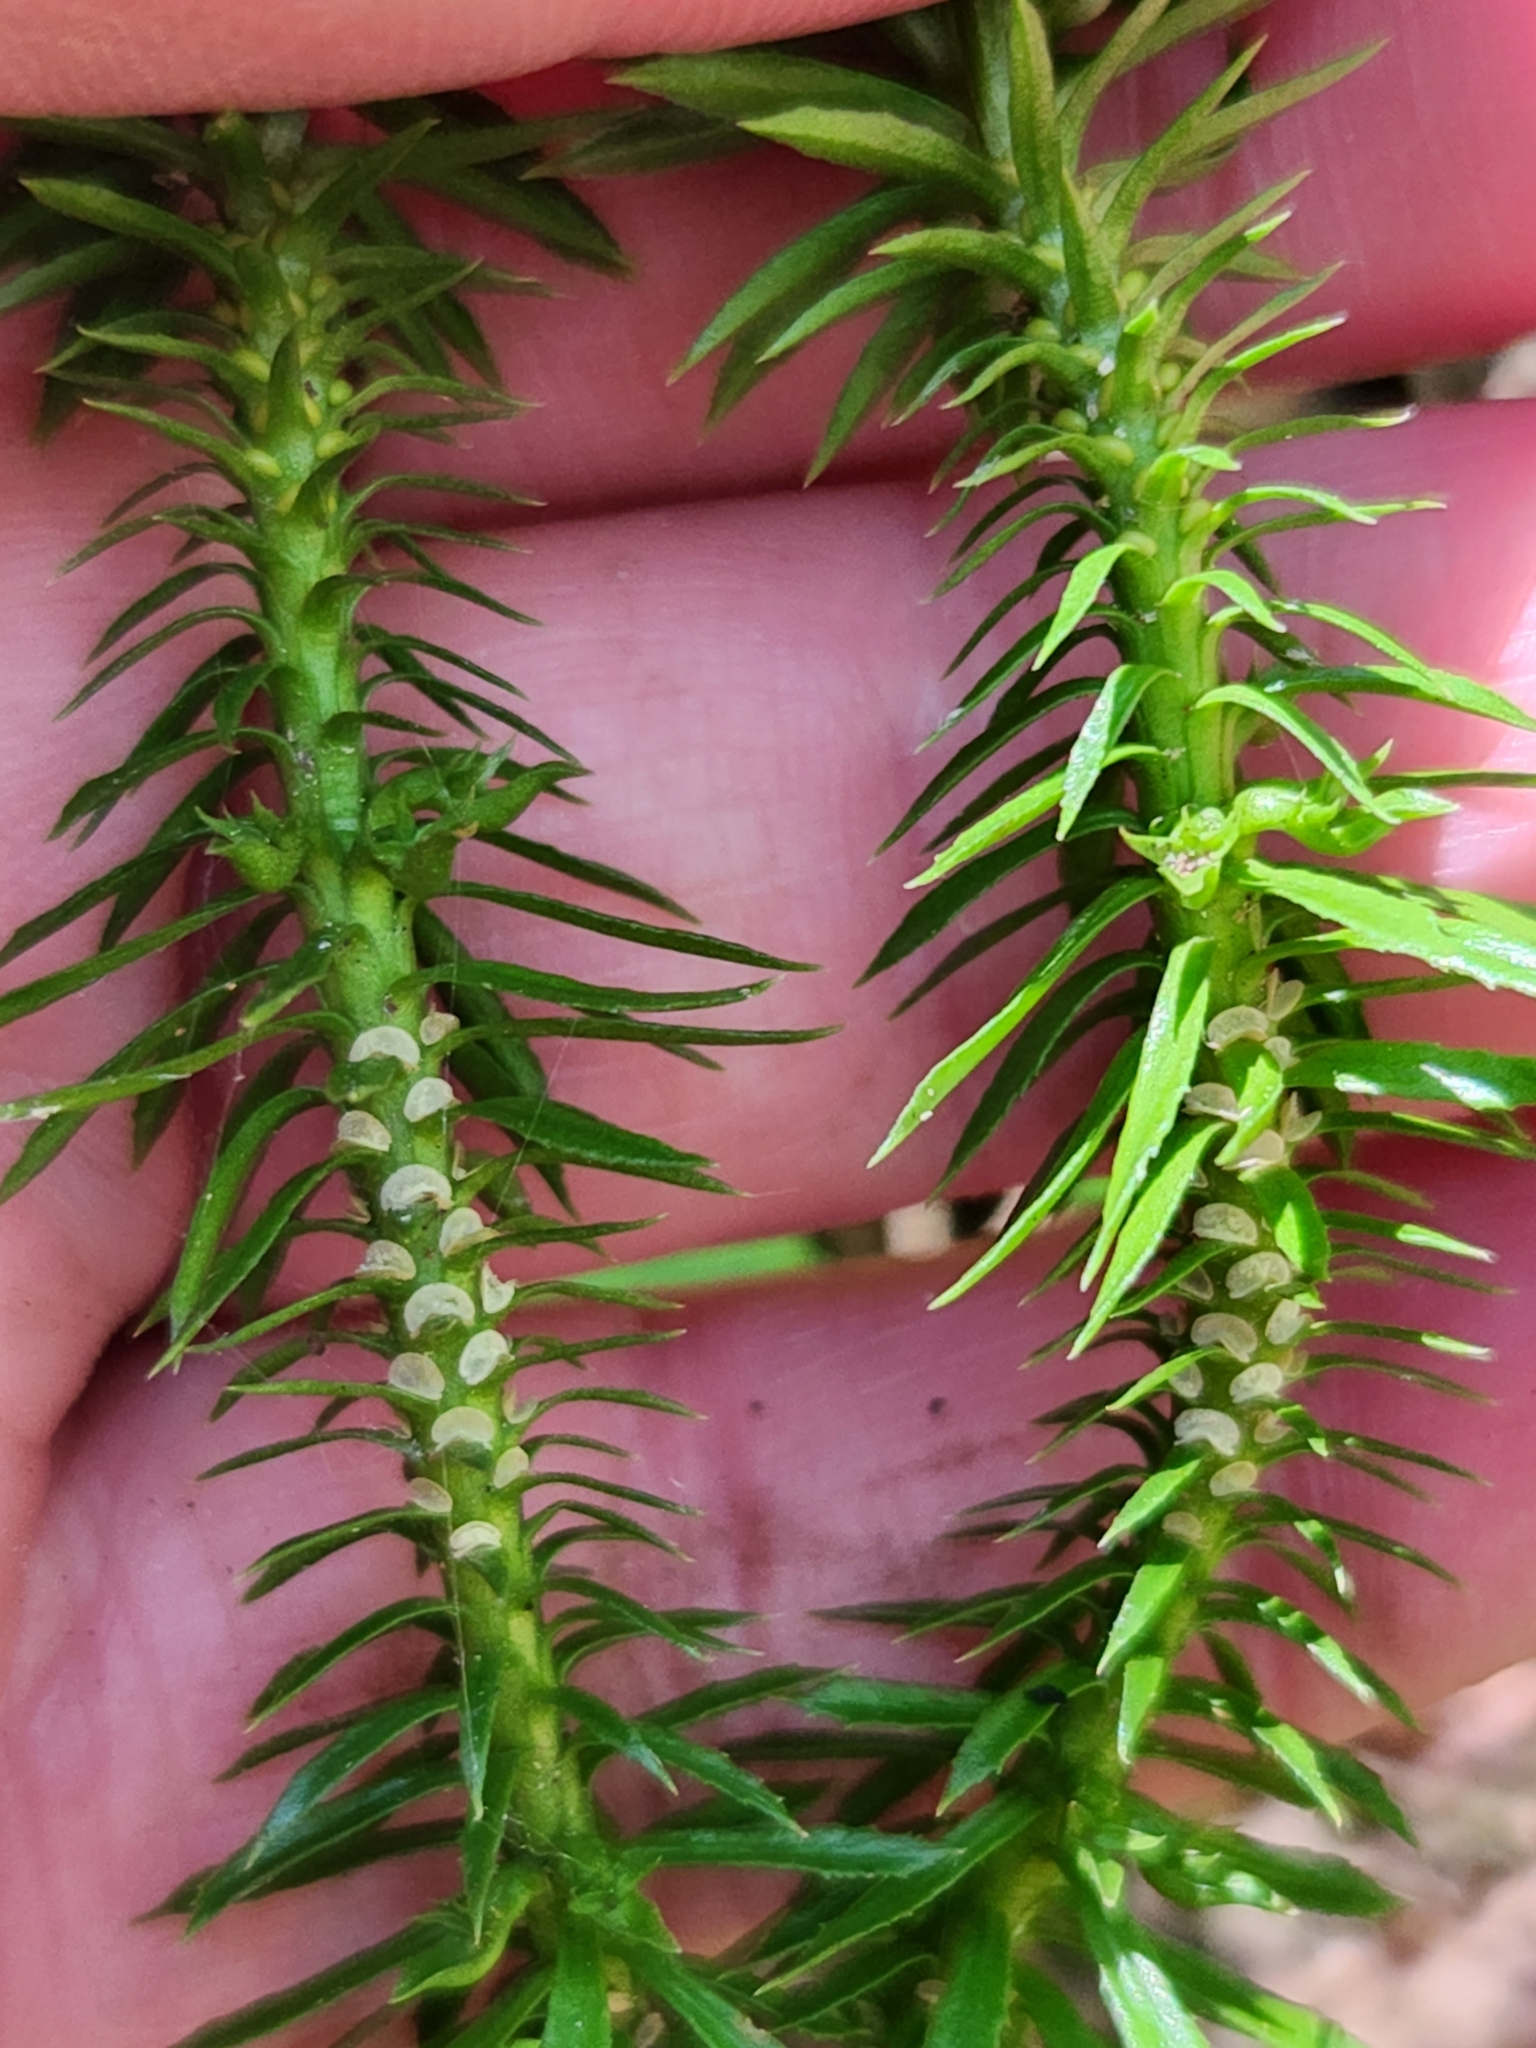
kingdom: Plantae
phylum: Tracheophyta
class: Lycopodiopsida
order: Lycopodiales
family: Lycopodiaceae
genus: Huperzia
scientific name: Huperzia lucidula
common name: Shining clubmoss
